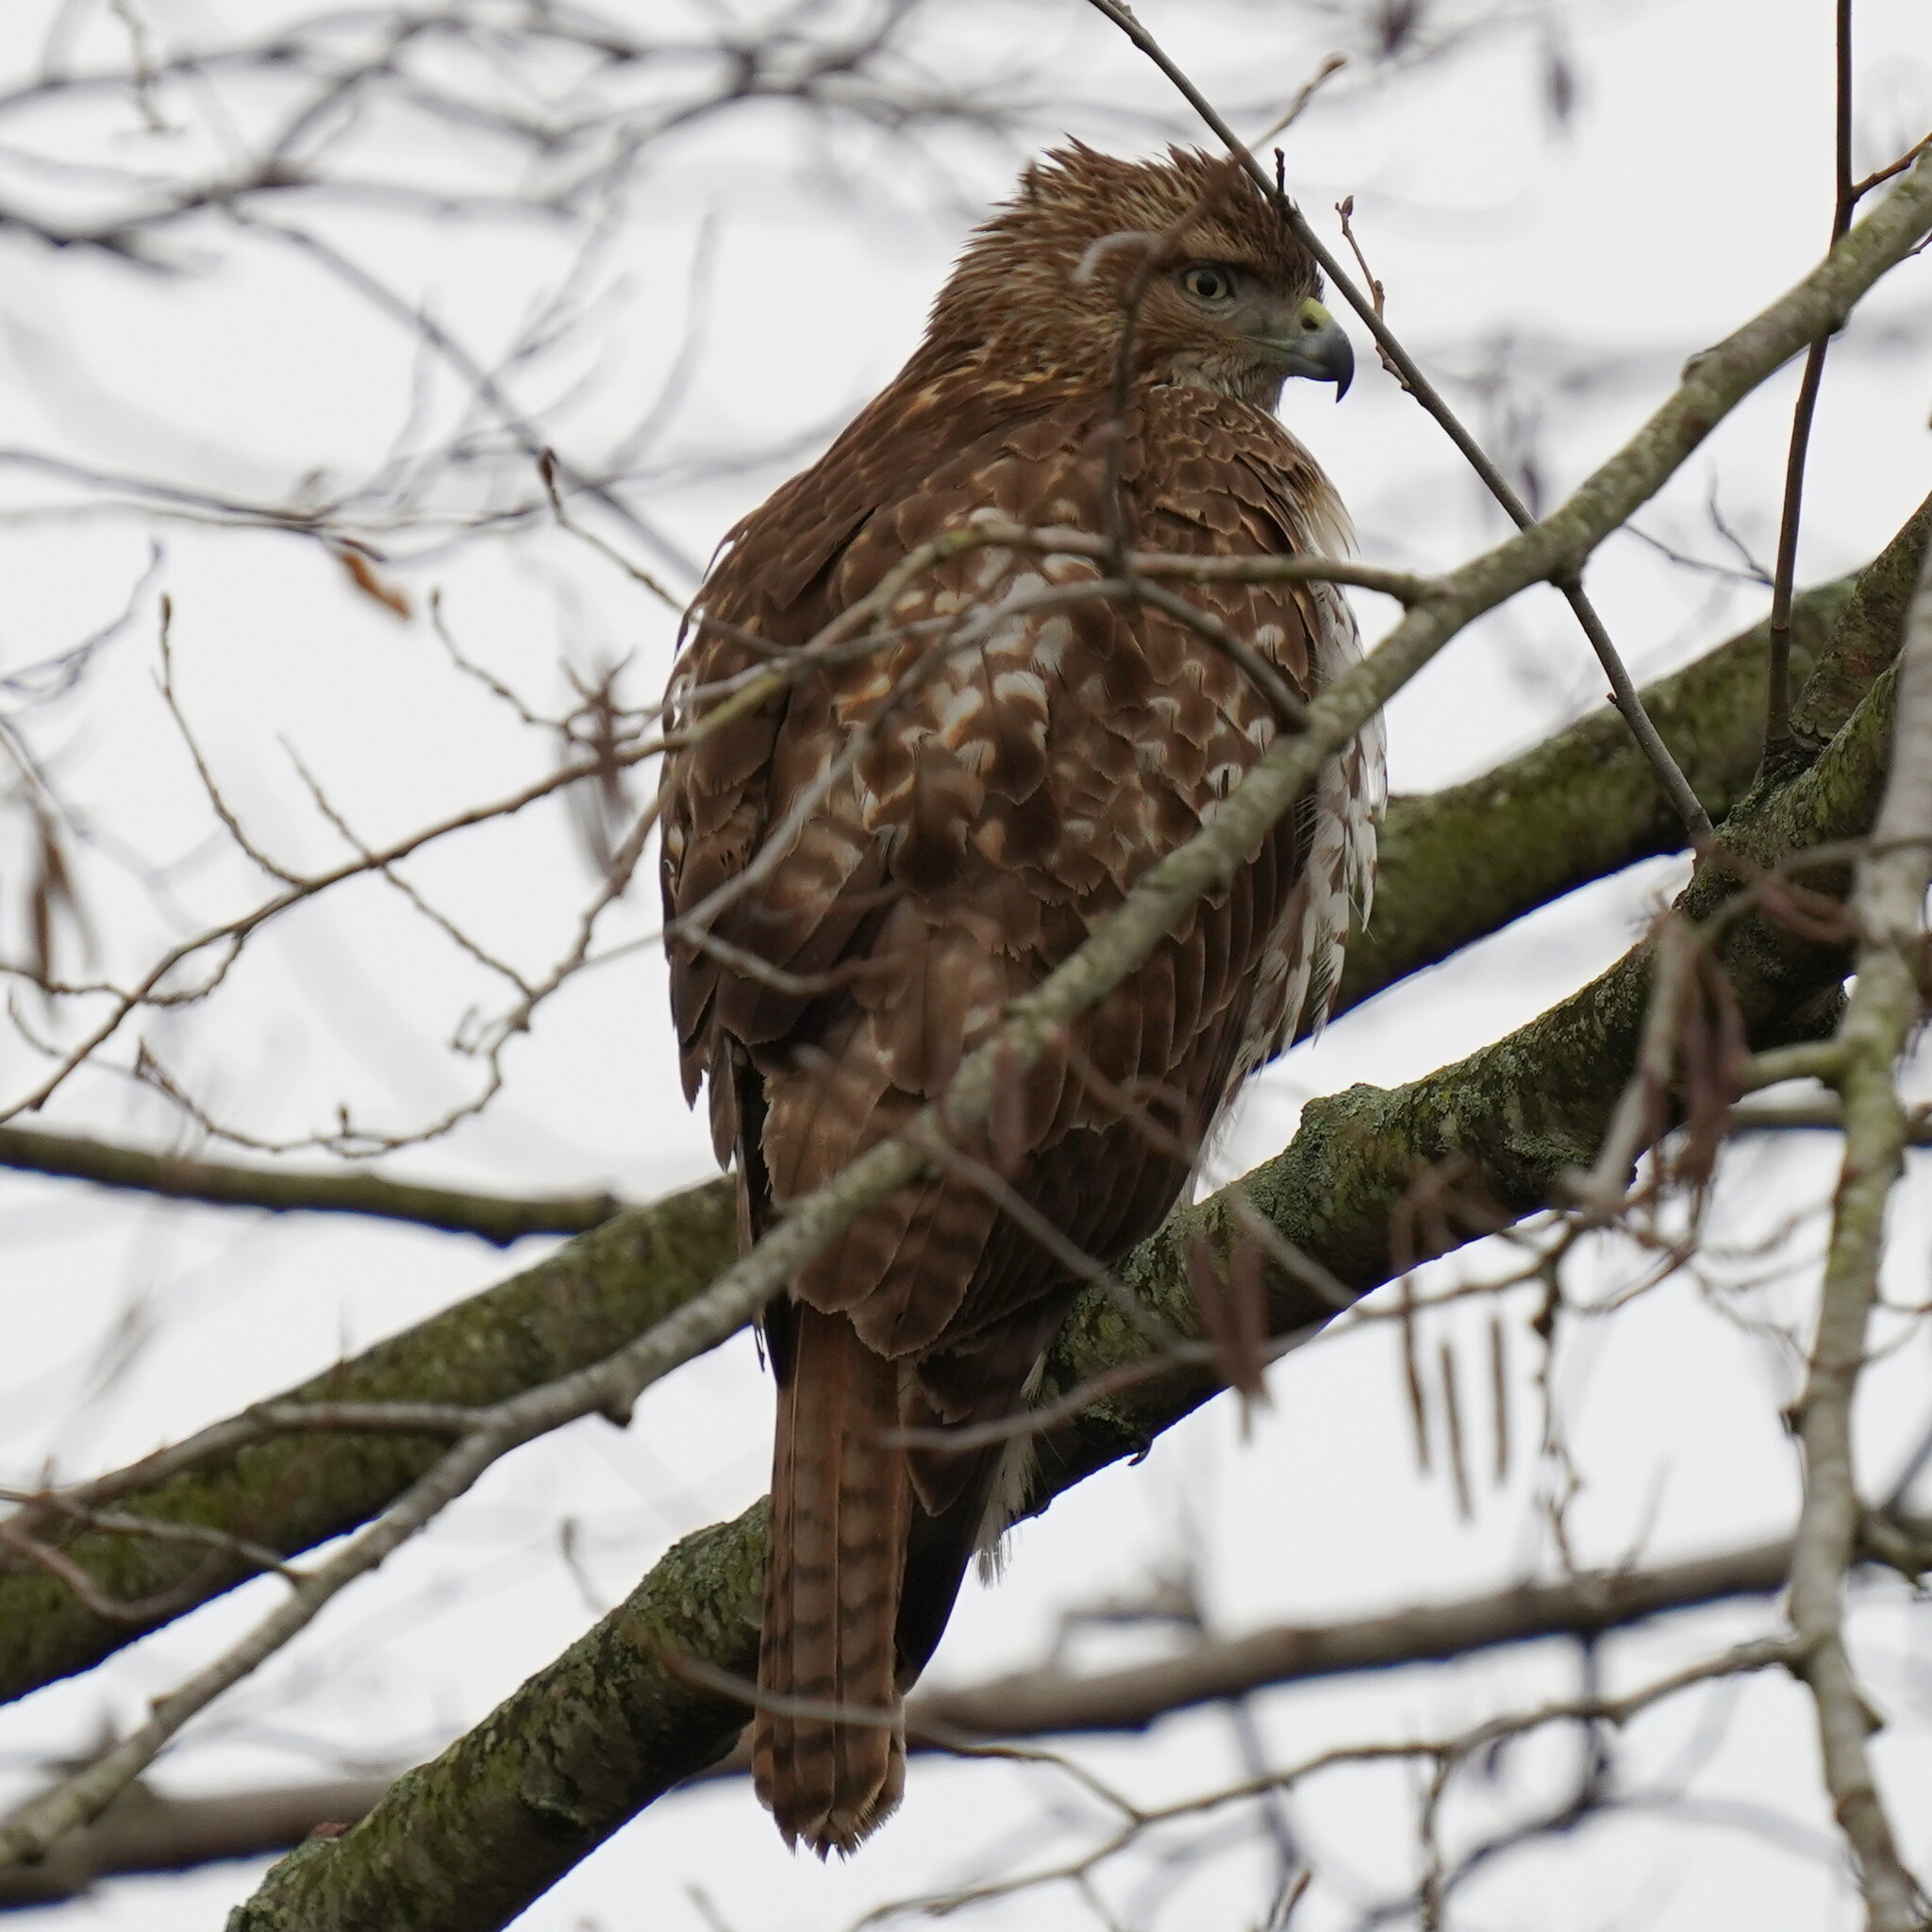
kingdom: Animalia
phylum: Chordata
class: Aves
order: Accipitriformes
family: Accipitridae
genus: Buteo
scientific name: Buteo jamaicensis
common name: Red-tailed hawk
